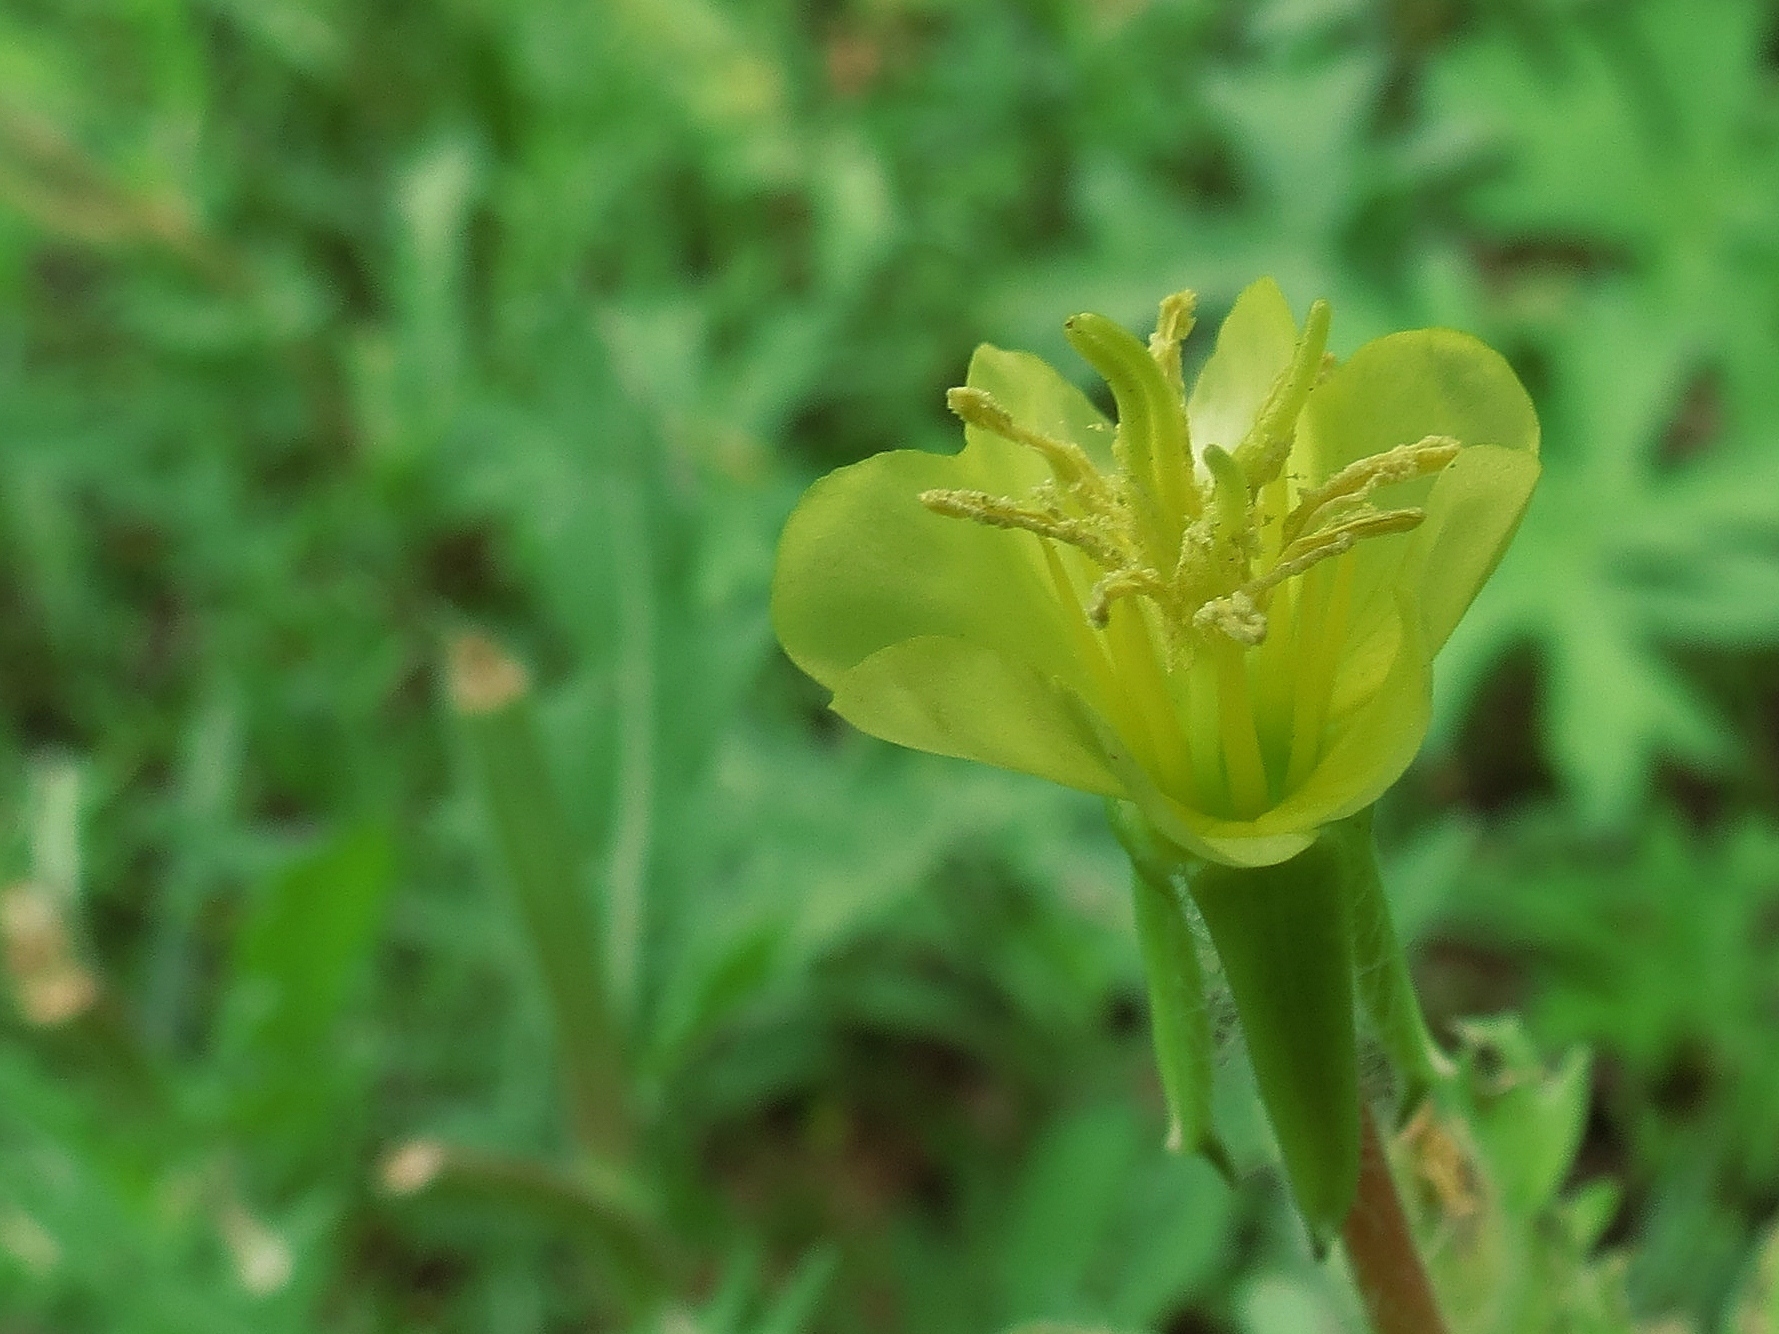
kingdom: Plantae
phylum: Tracheophyta
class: Magnoliopsida
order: Myrtales
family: Onagraceae
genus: Oenothera
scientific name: Oenothera laciniata
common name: Cut-leaved evening-primrose
